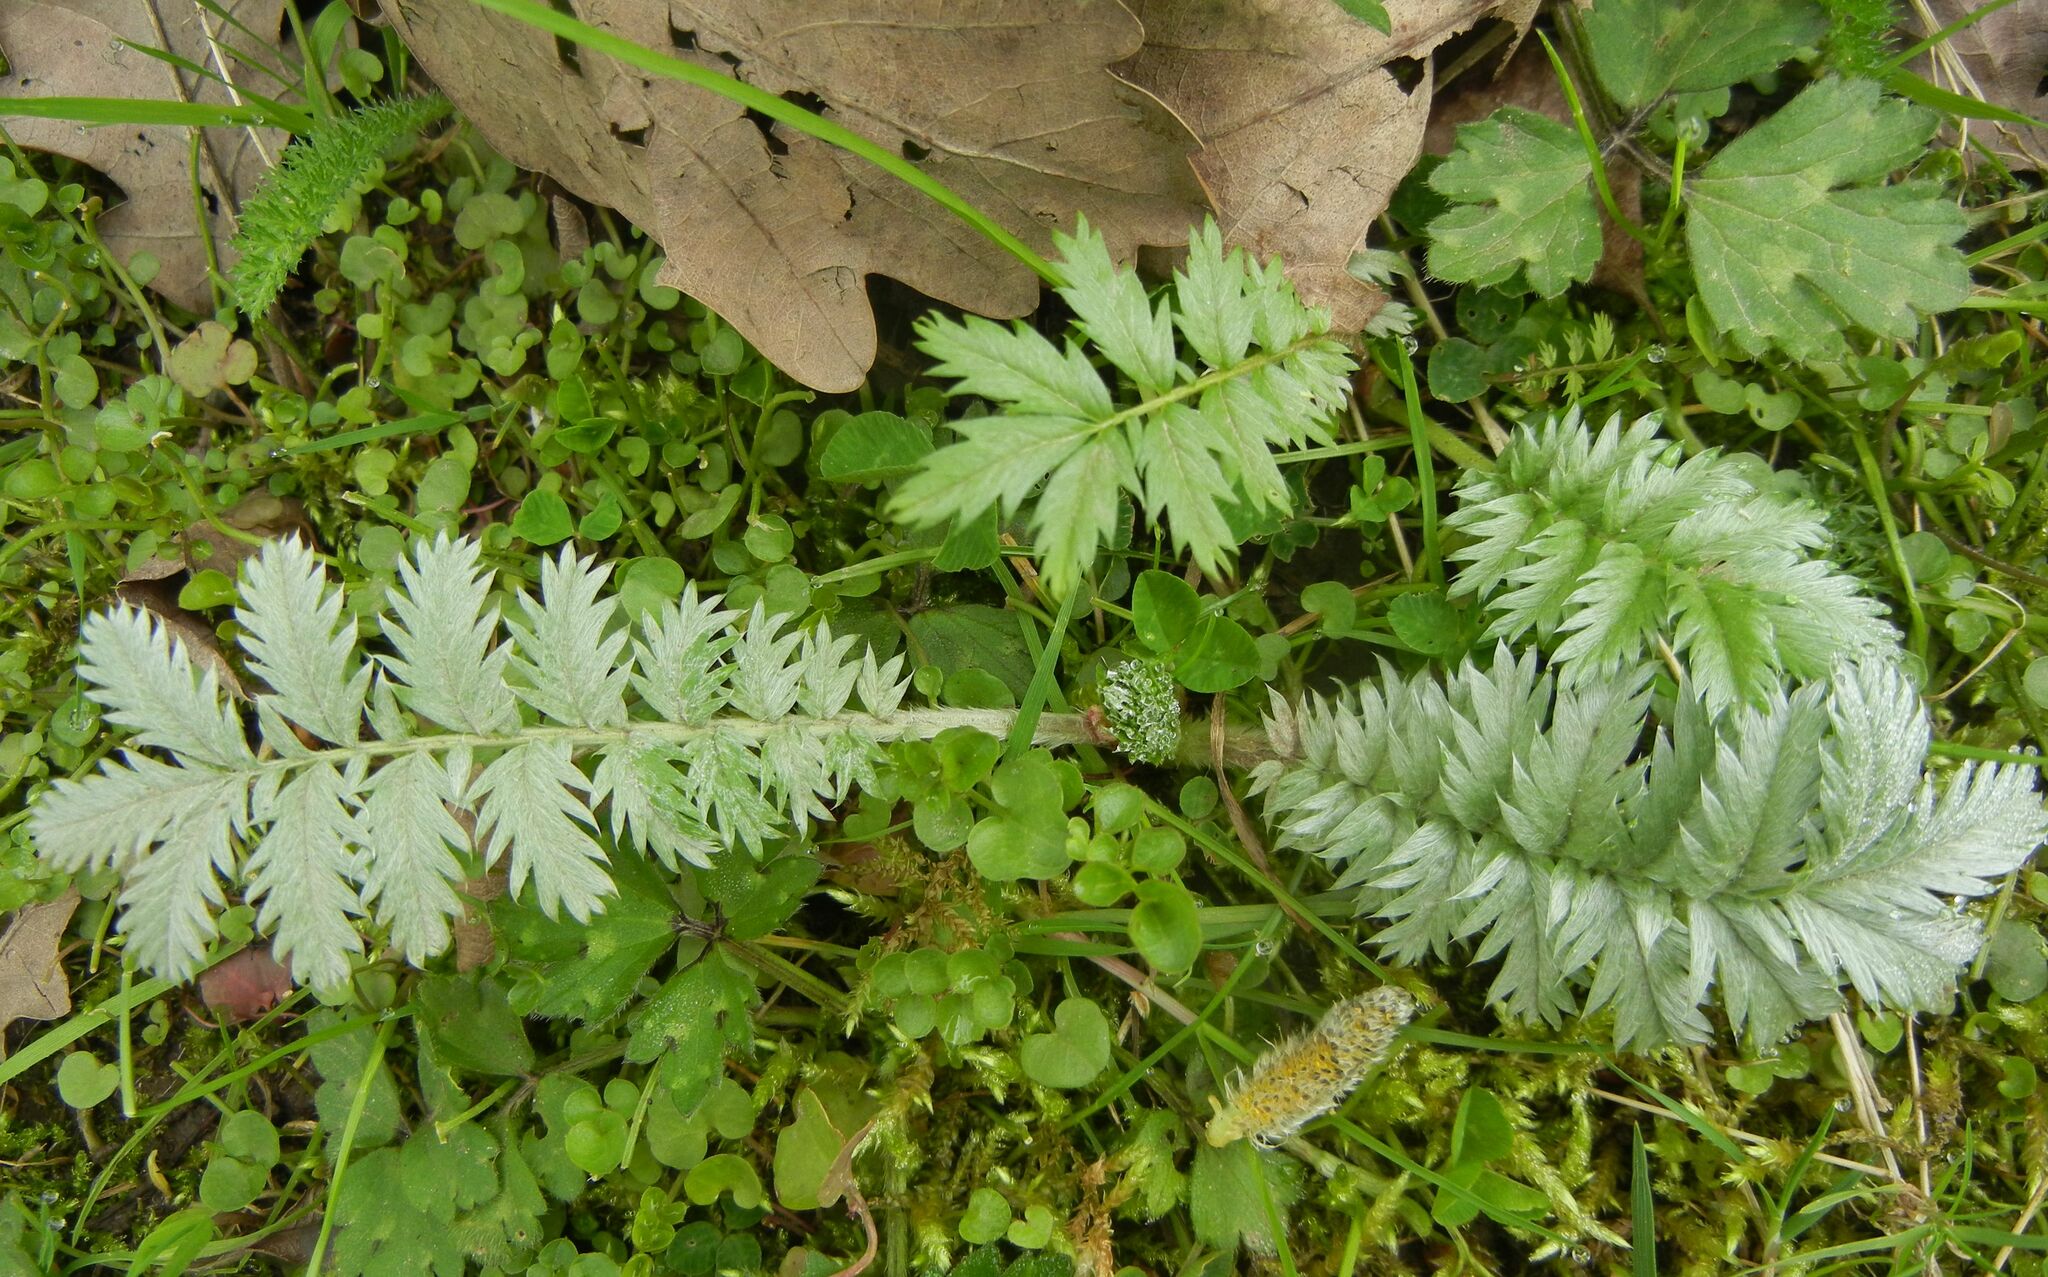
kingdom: Plantae
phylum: Tracheophyta
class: Magnoliopsida
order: Rosales
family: Rosaceae
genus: Argentina
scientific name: Argentina anserina
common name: Common silverweed
